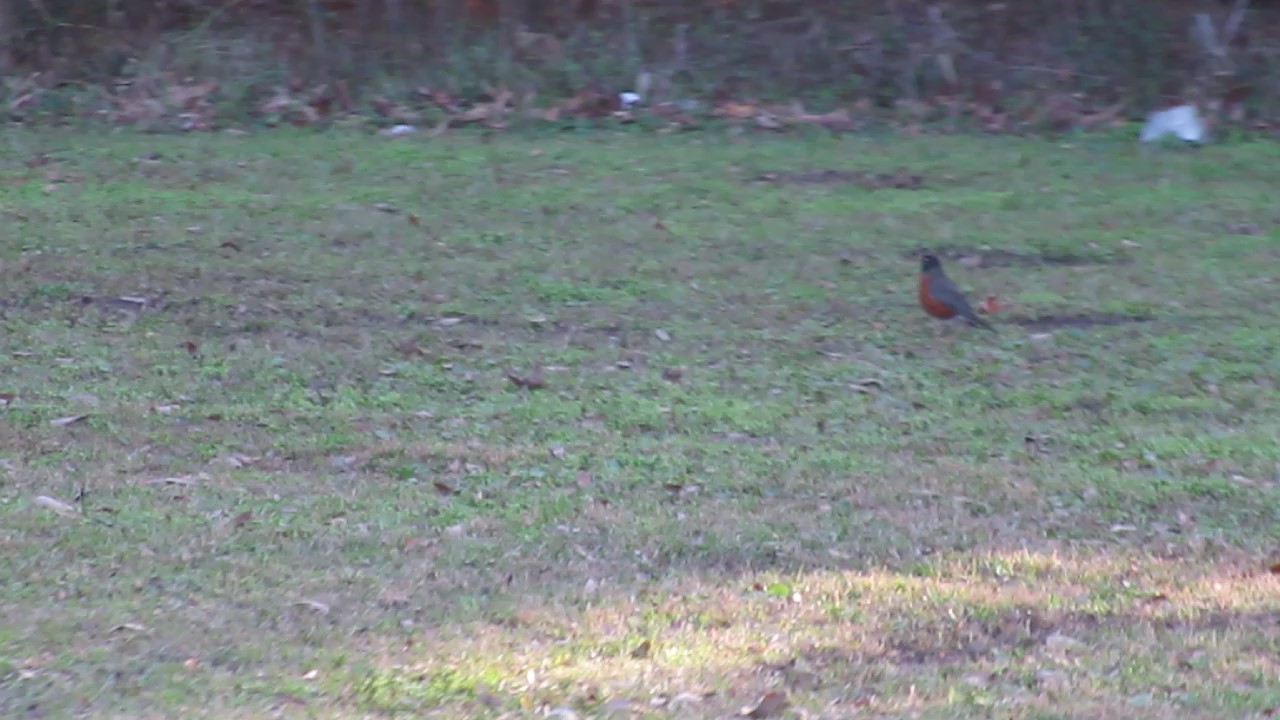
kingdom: Animalia
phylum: Chordata
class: Aves
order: Passeriformes
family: Turdidae
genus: Turdus
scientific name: Turdus migratorius
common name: American robin
